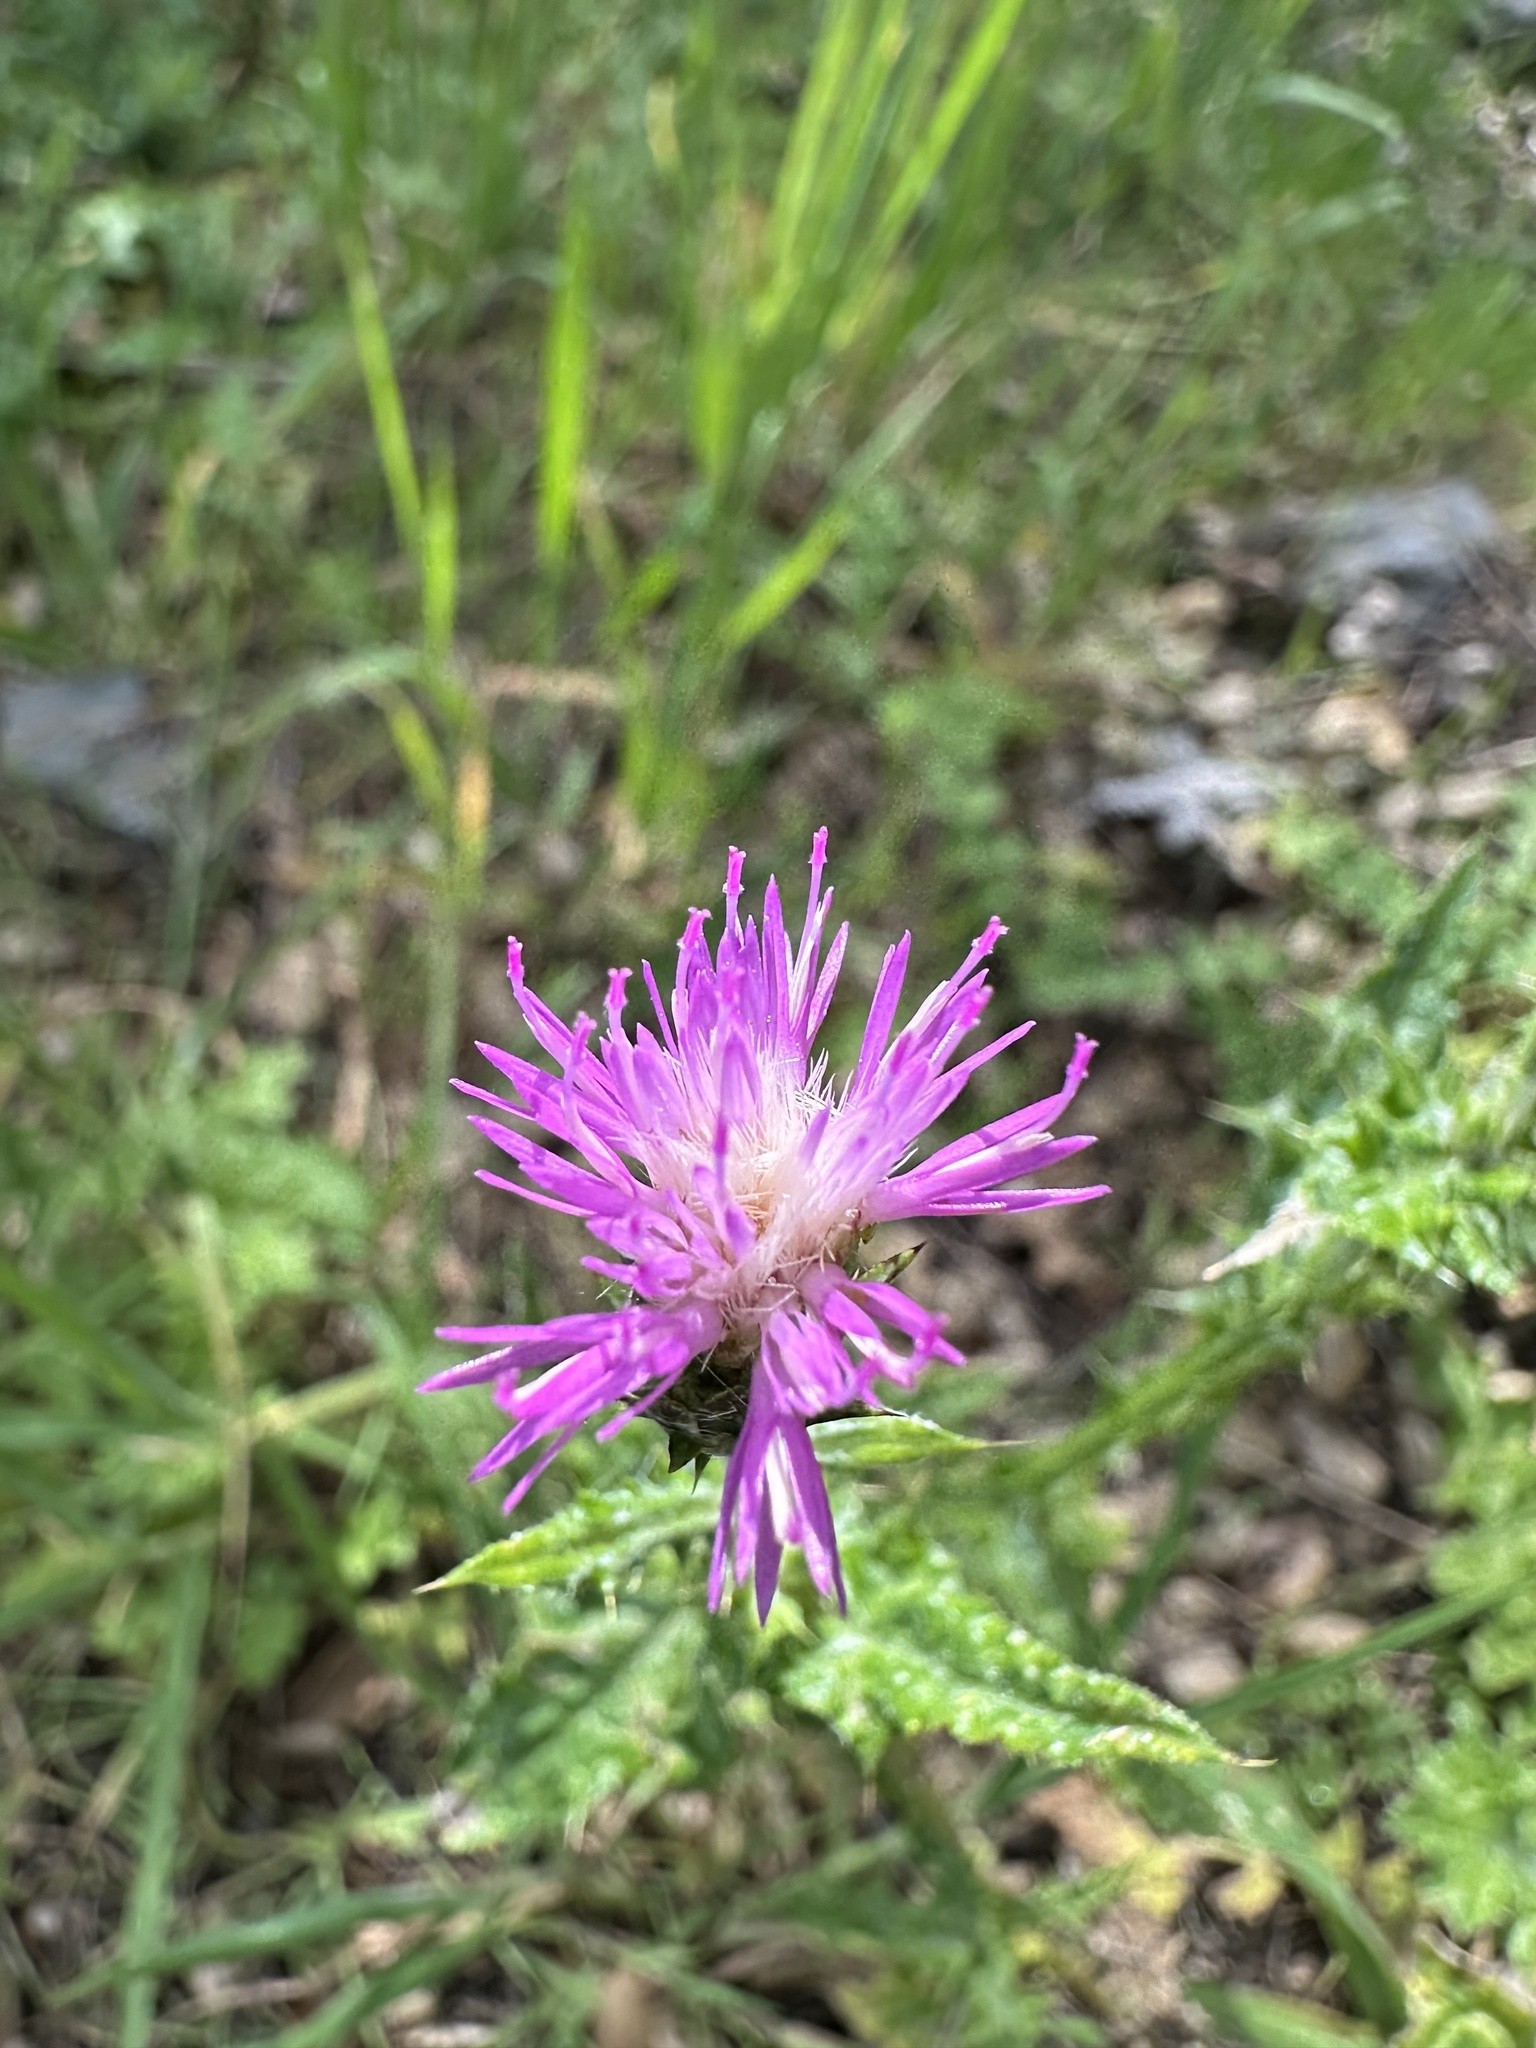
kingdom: Plantae
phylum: Tracheophyta
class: Magnoliopsida
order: Asterales
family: Asteraceae
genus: Carduus
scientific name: Carduus pycnocephalus
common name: Plymouth thistle
